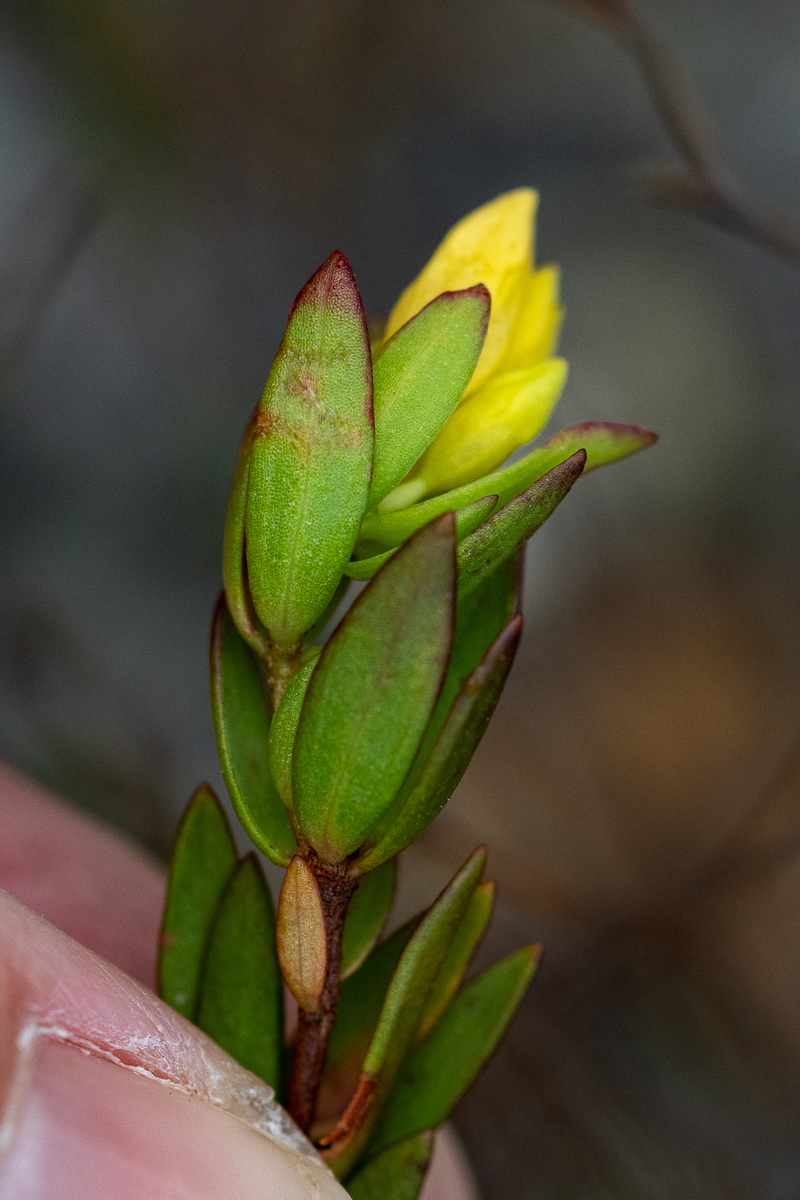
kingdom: Plantae
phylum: Tracheophyta
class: Magnoliopsida
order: Malvales
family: Thymelaeaceae
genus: Gnidia
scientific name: Gnidia juniperifolia
